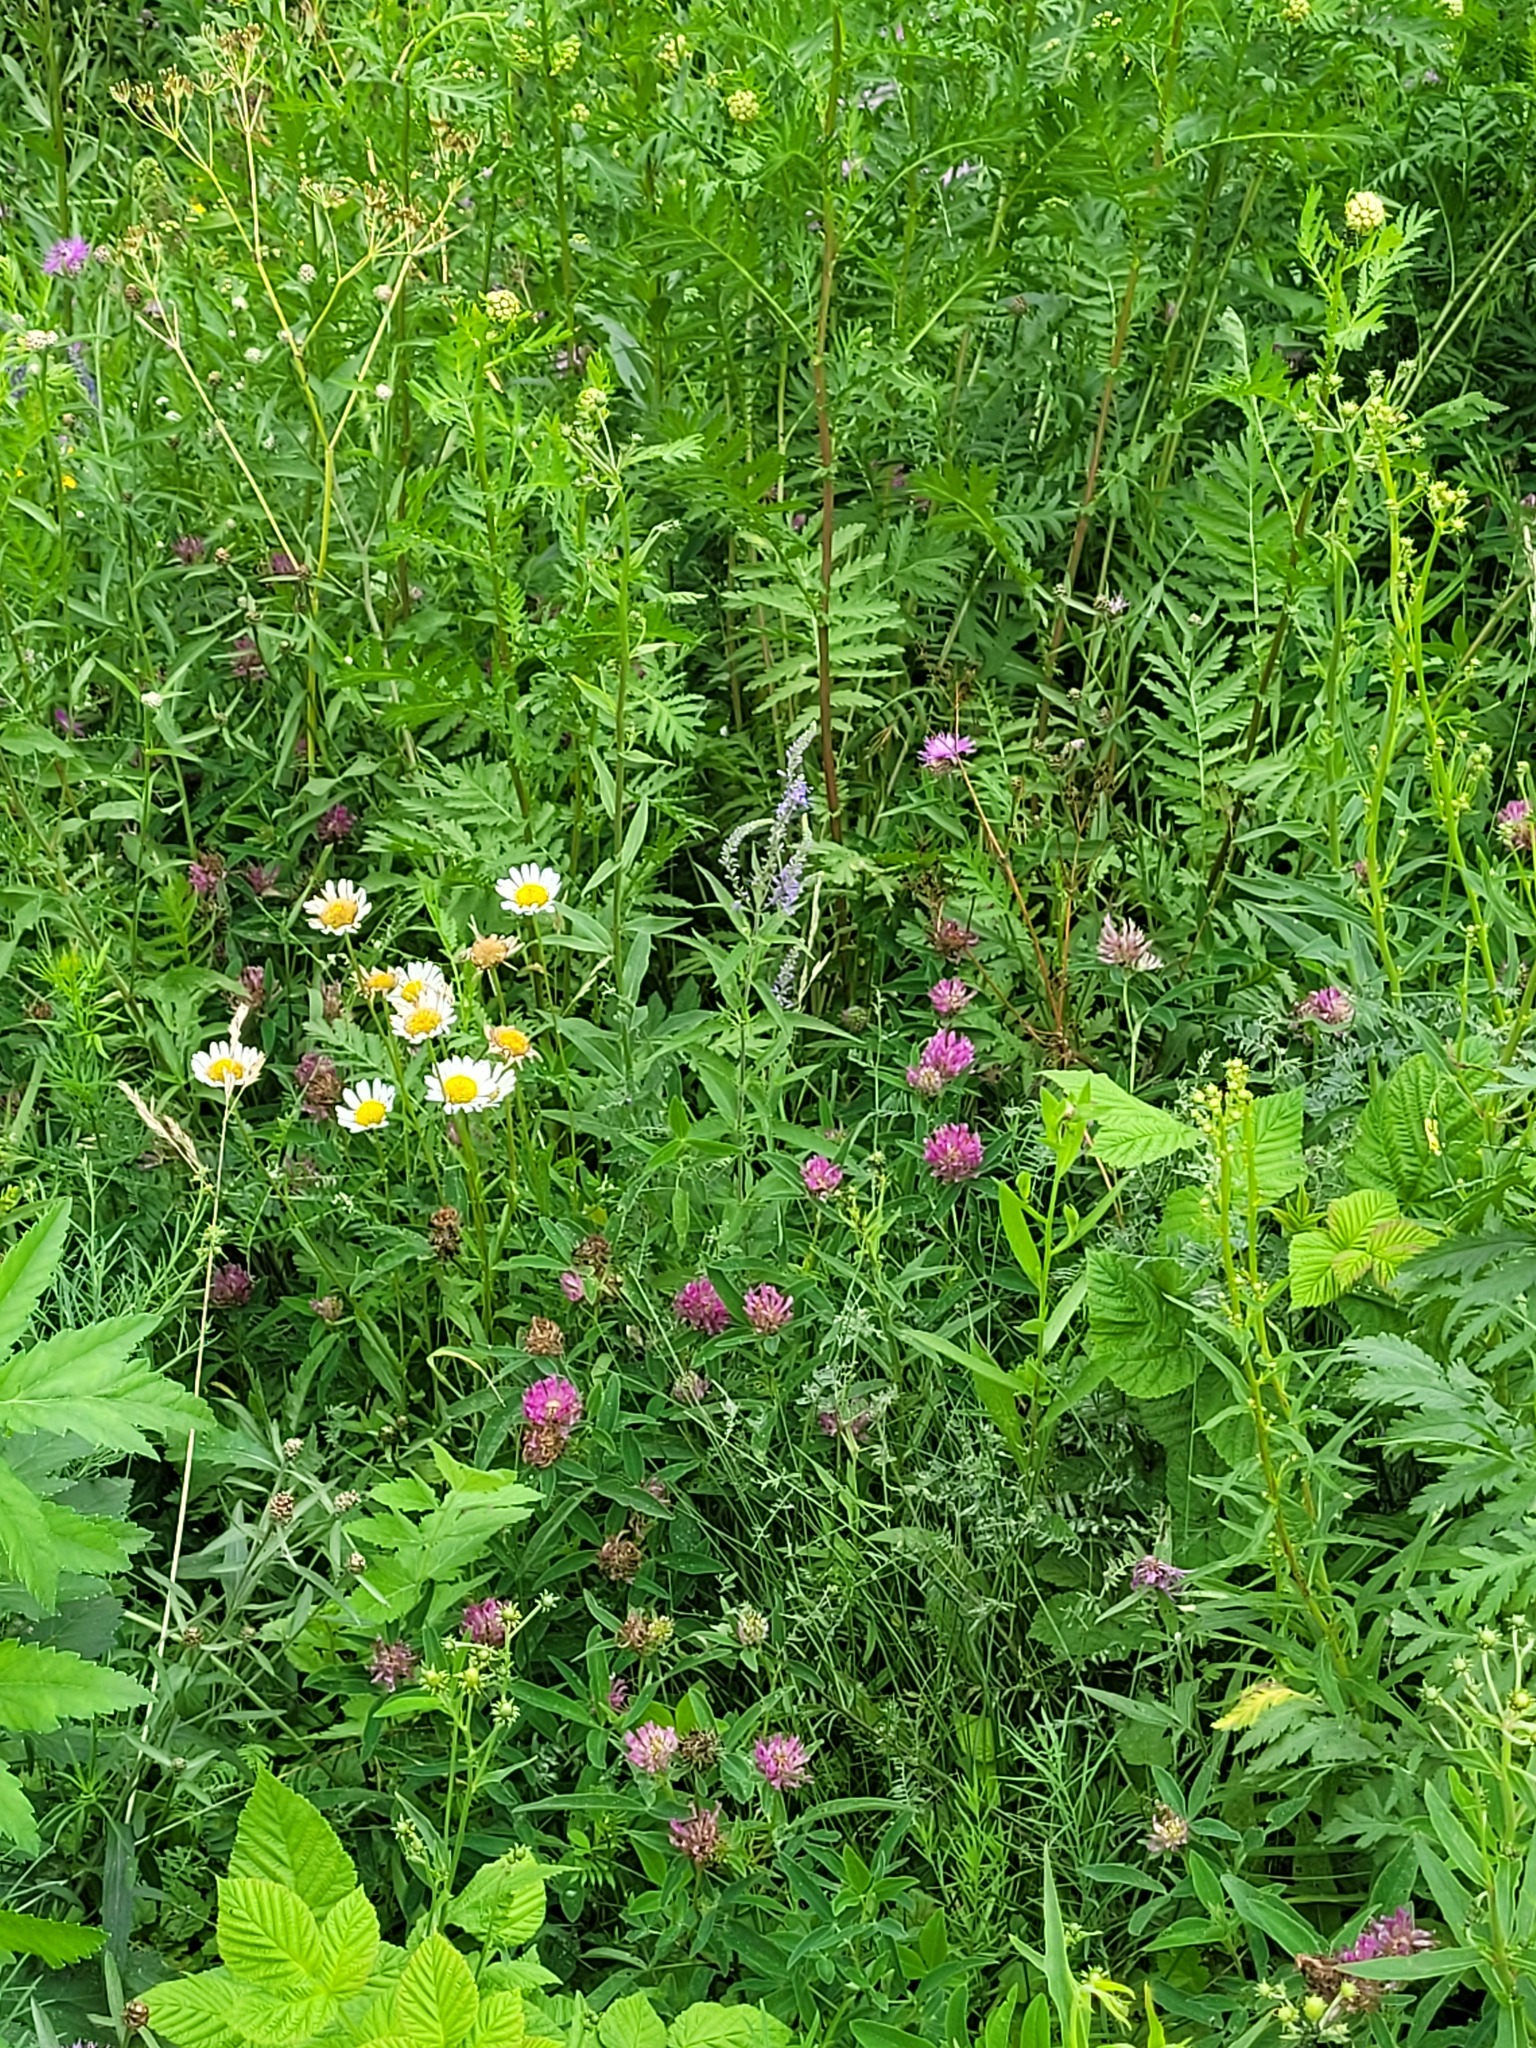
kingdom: Plantae
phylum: Tracheophyta
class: Magnoliopsida
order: Asterales
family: Asteraceae
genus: Leucanthemum
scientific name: Leucanthemum vulgare
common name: Oxeye daisy
